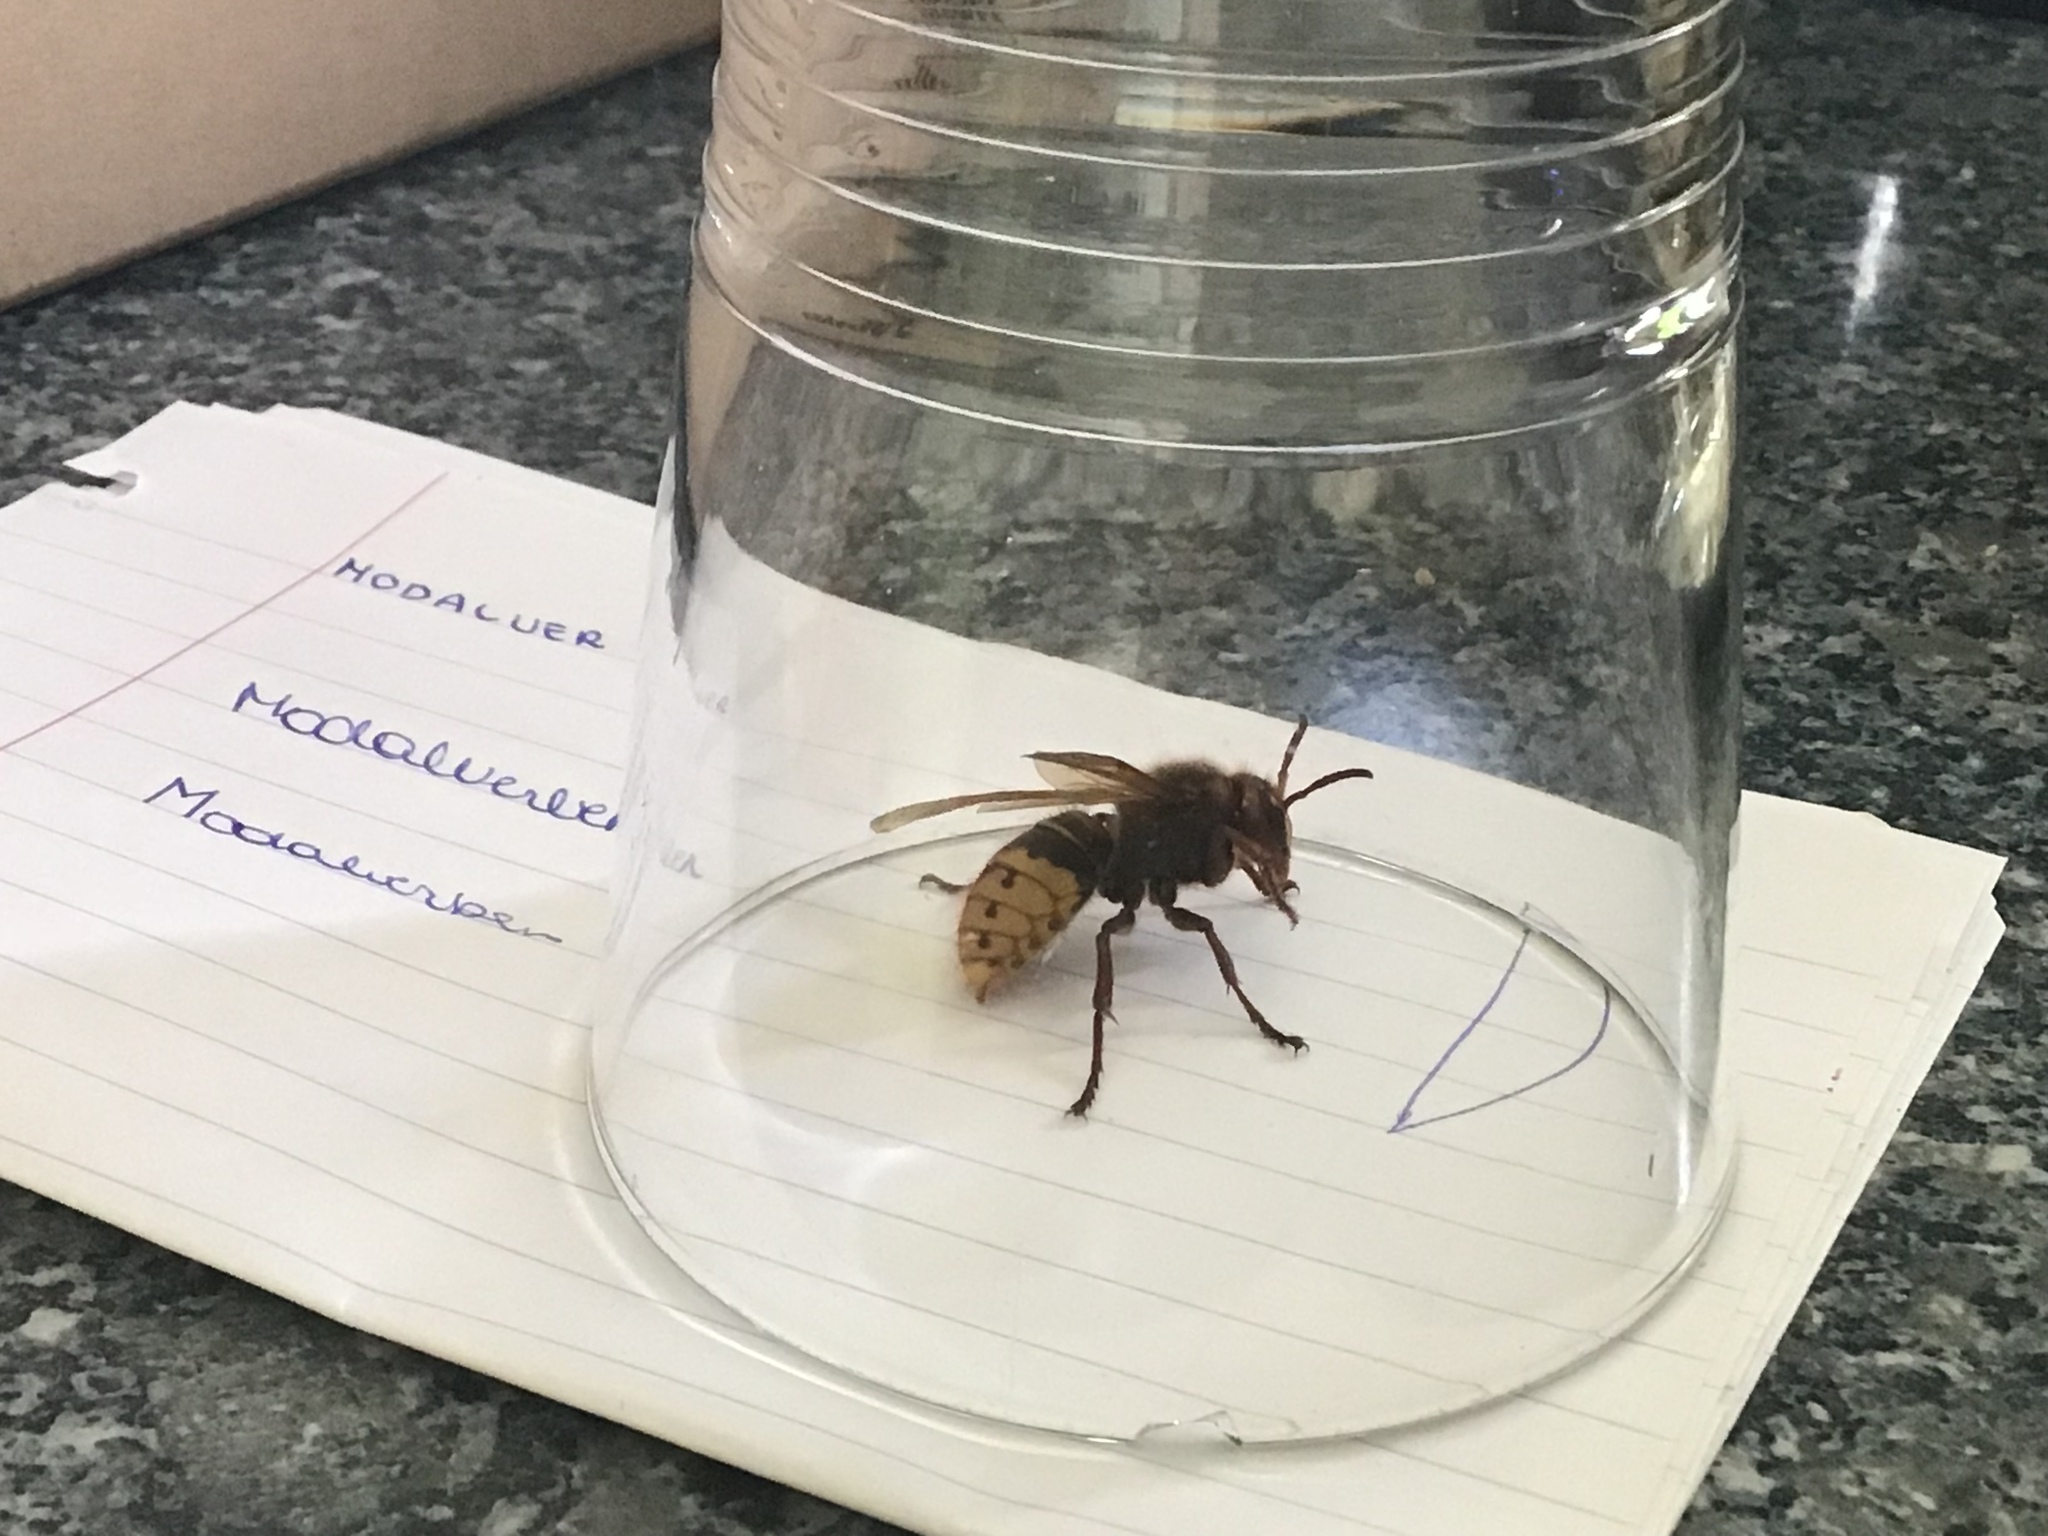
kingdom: Animalia
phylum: Arthropoda
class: Insecta
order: Hymenoptera
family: Vespidae
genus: Vespa
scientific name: Vespa crabro
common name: Hornet
